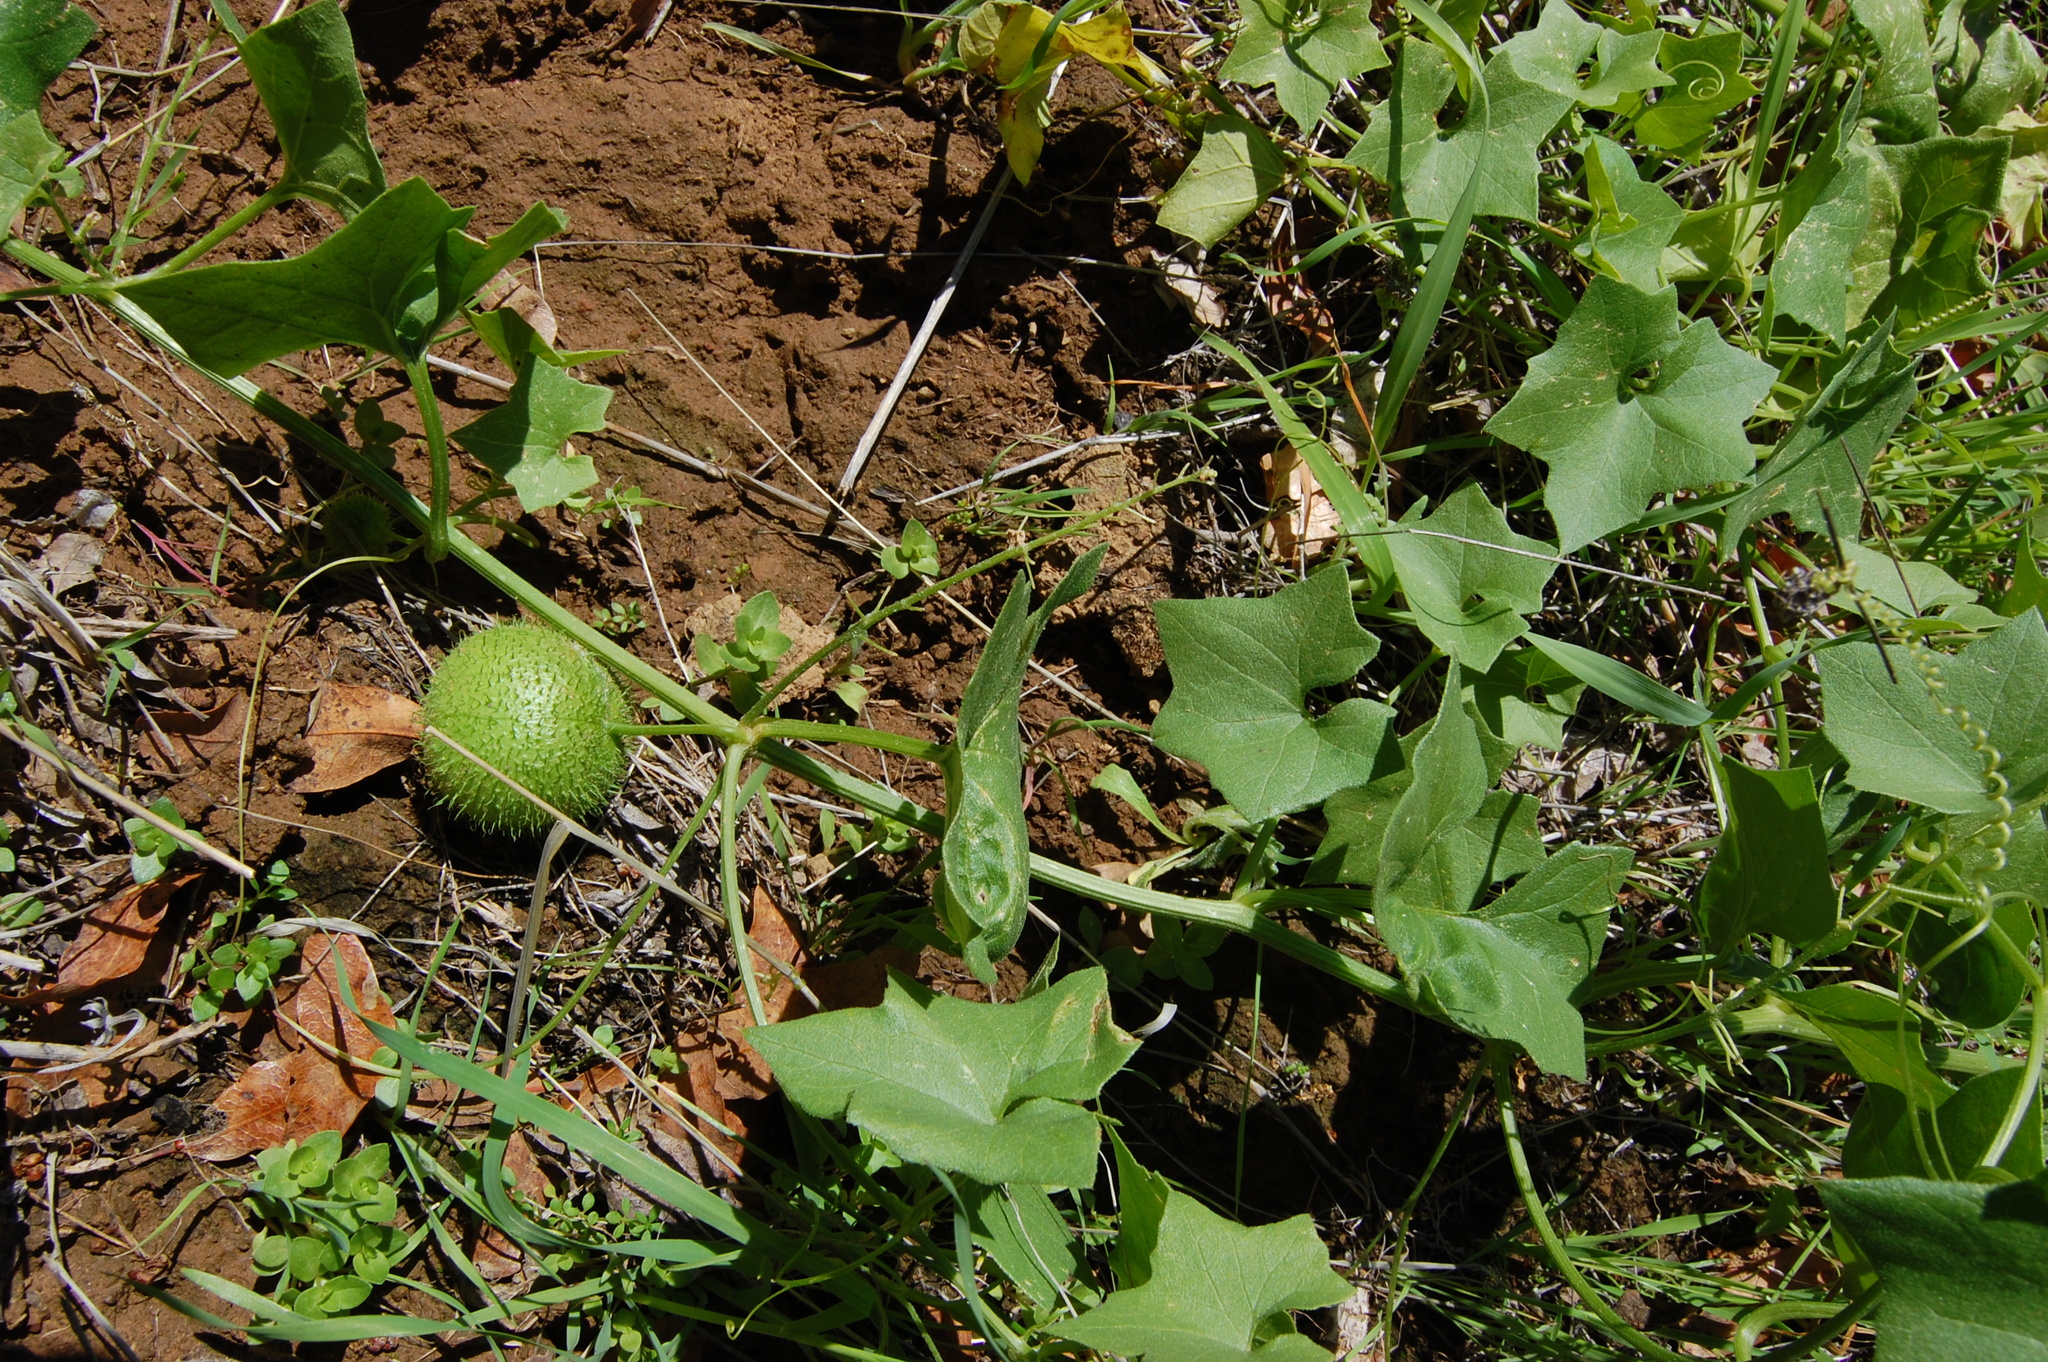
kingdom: Plantae
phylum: Tracheophyta
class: Magnoliopsida
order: Cucurbitales
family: Cucurbitaceae
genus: Marah
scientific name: Marah fabacea
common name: California manroot
